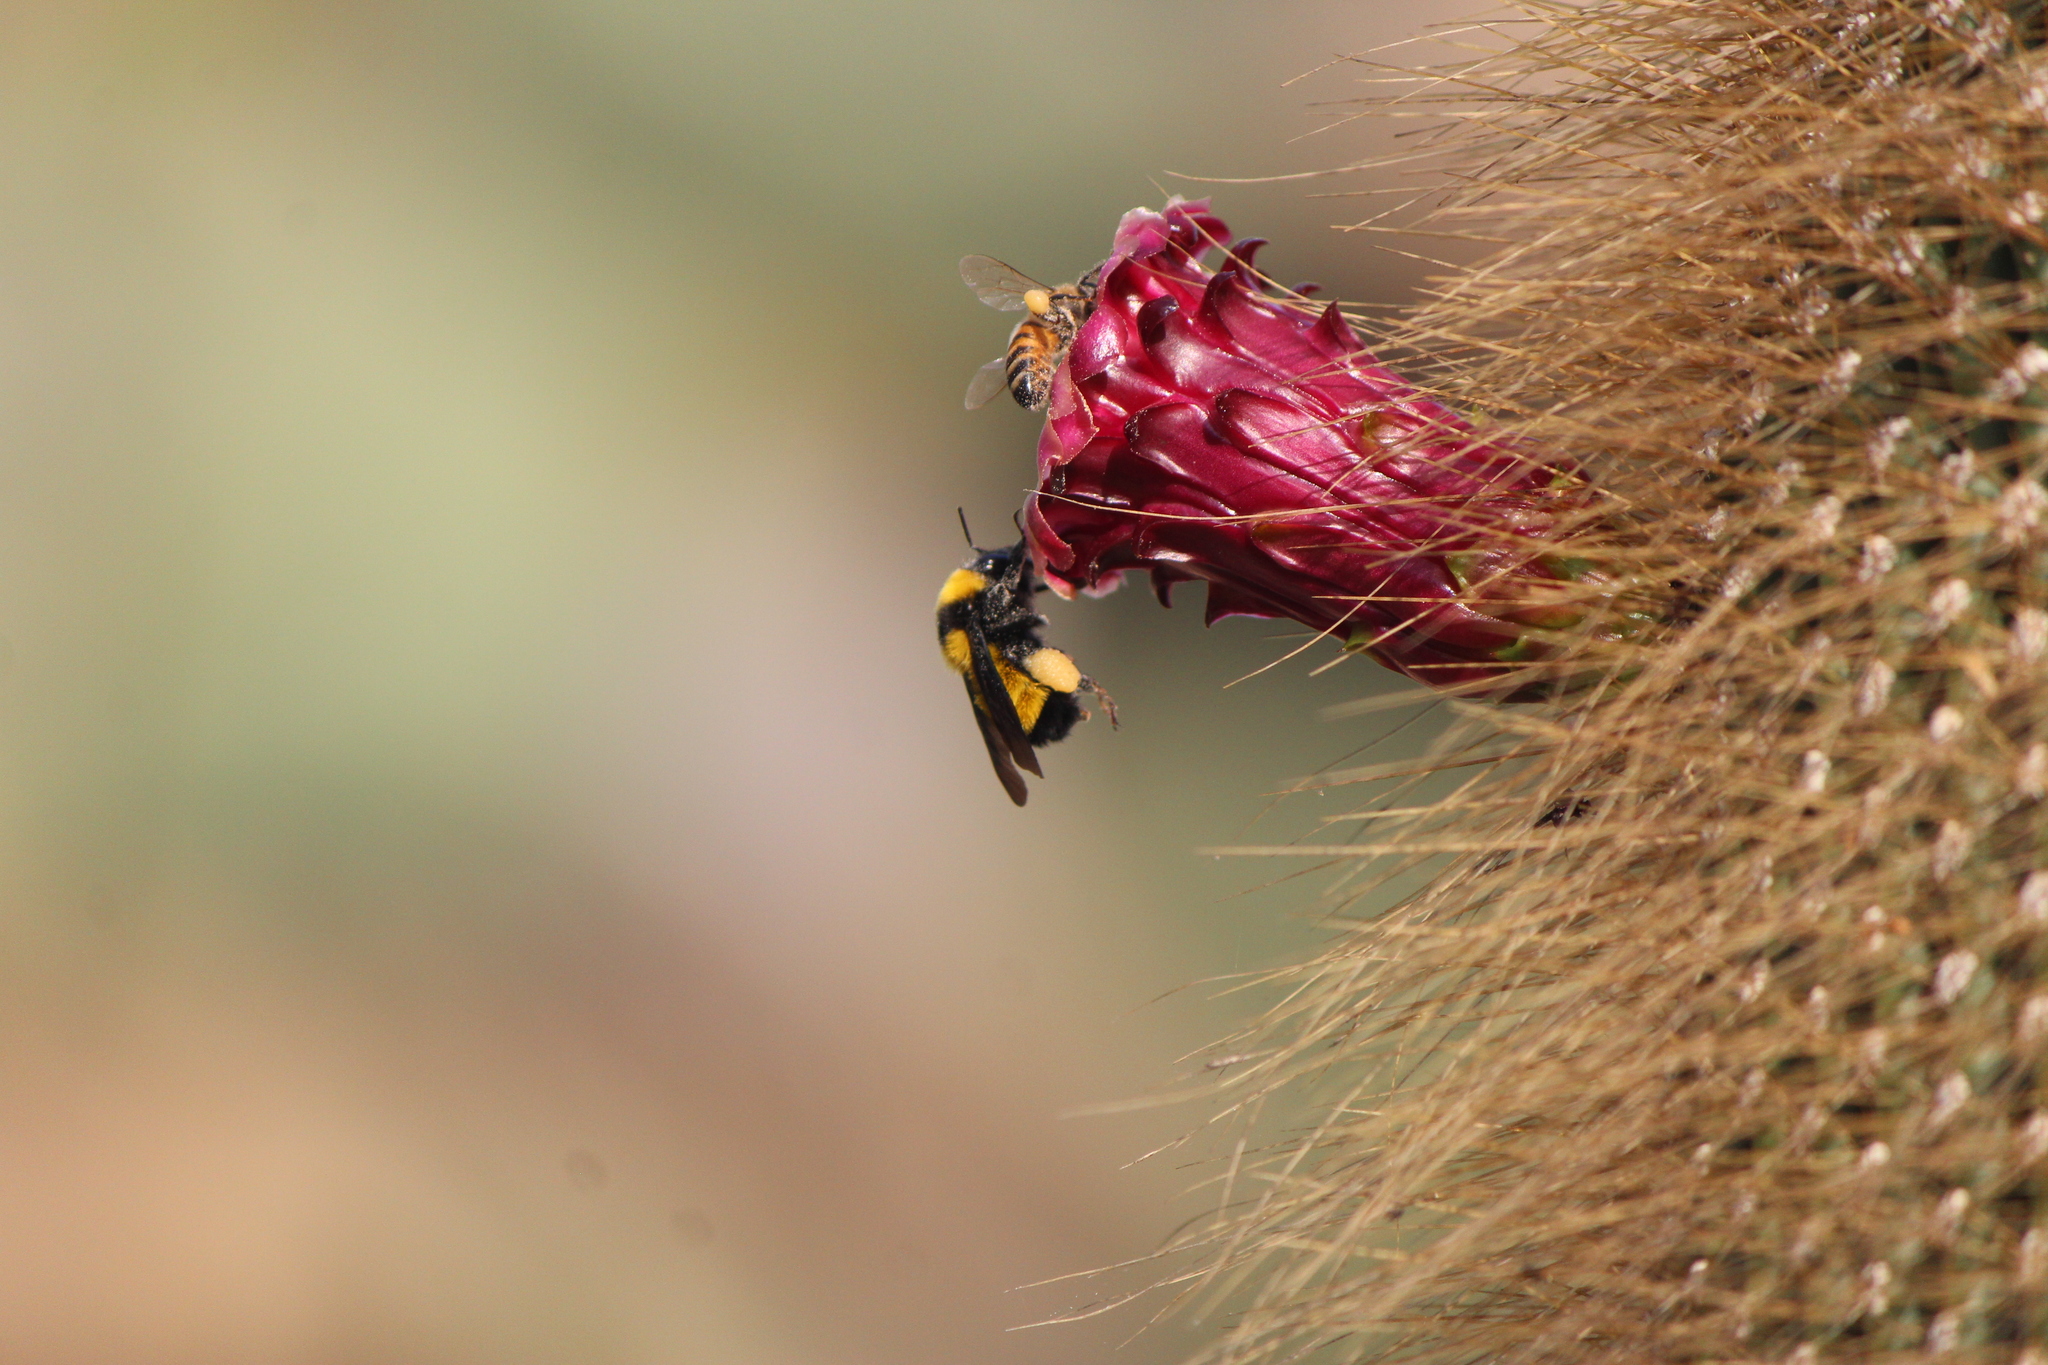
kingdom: Animalia
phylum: Arthropoda
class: Insecta
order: Hymenoptera
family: Apidae
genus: Bombus
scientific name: Bombus sonorus
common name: Sonoran bumble bee
